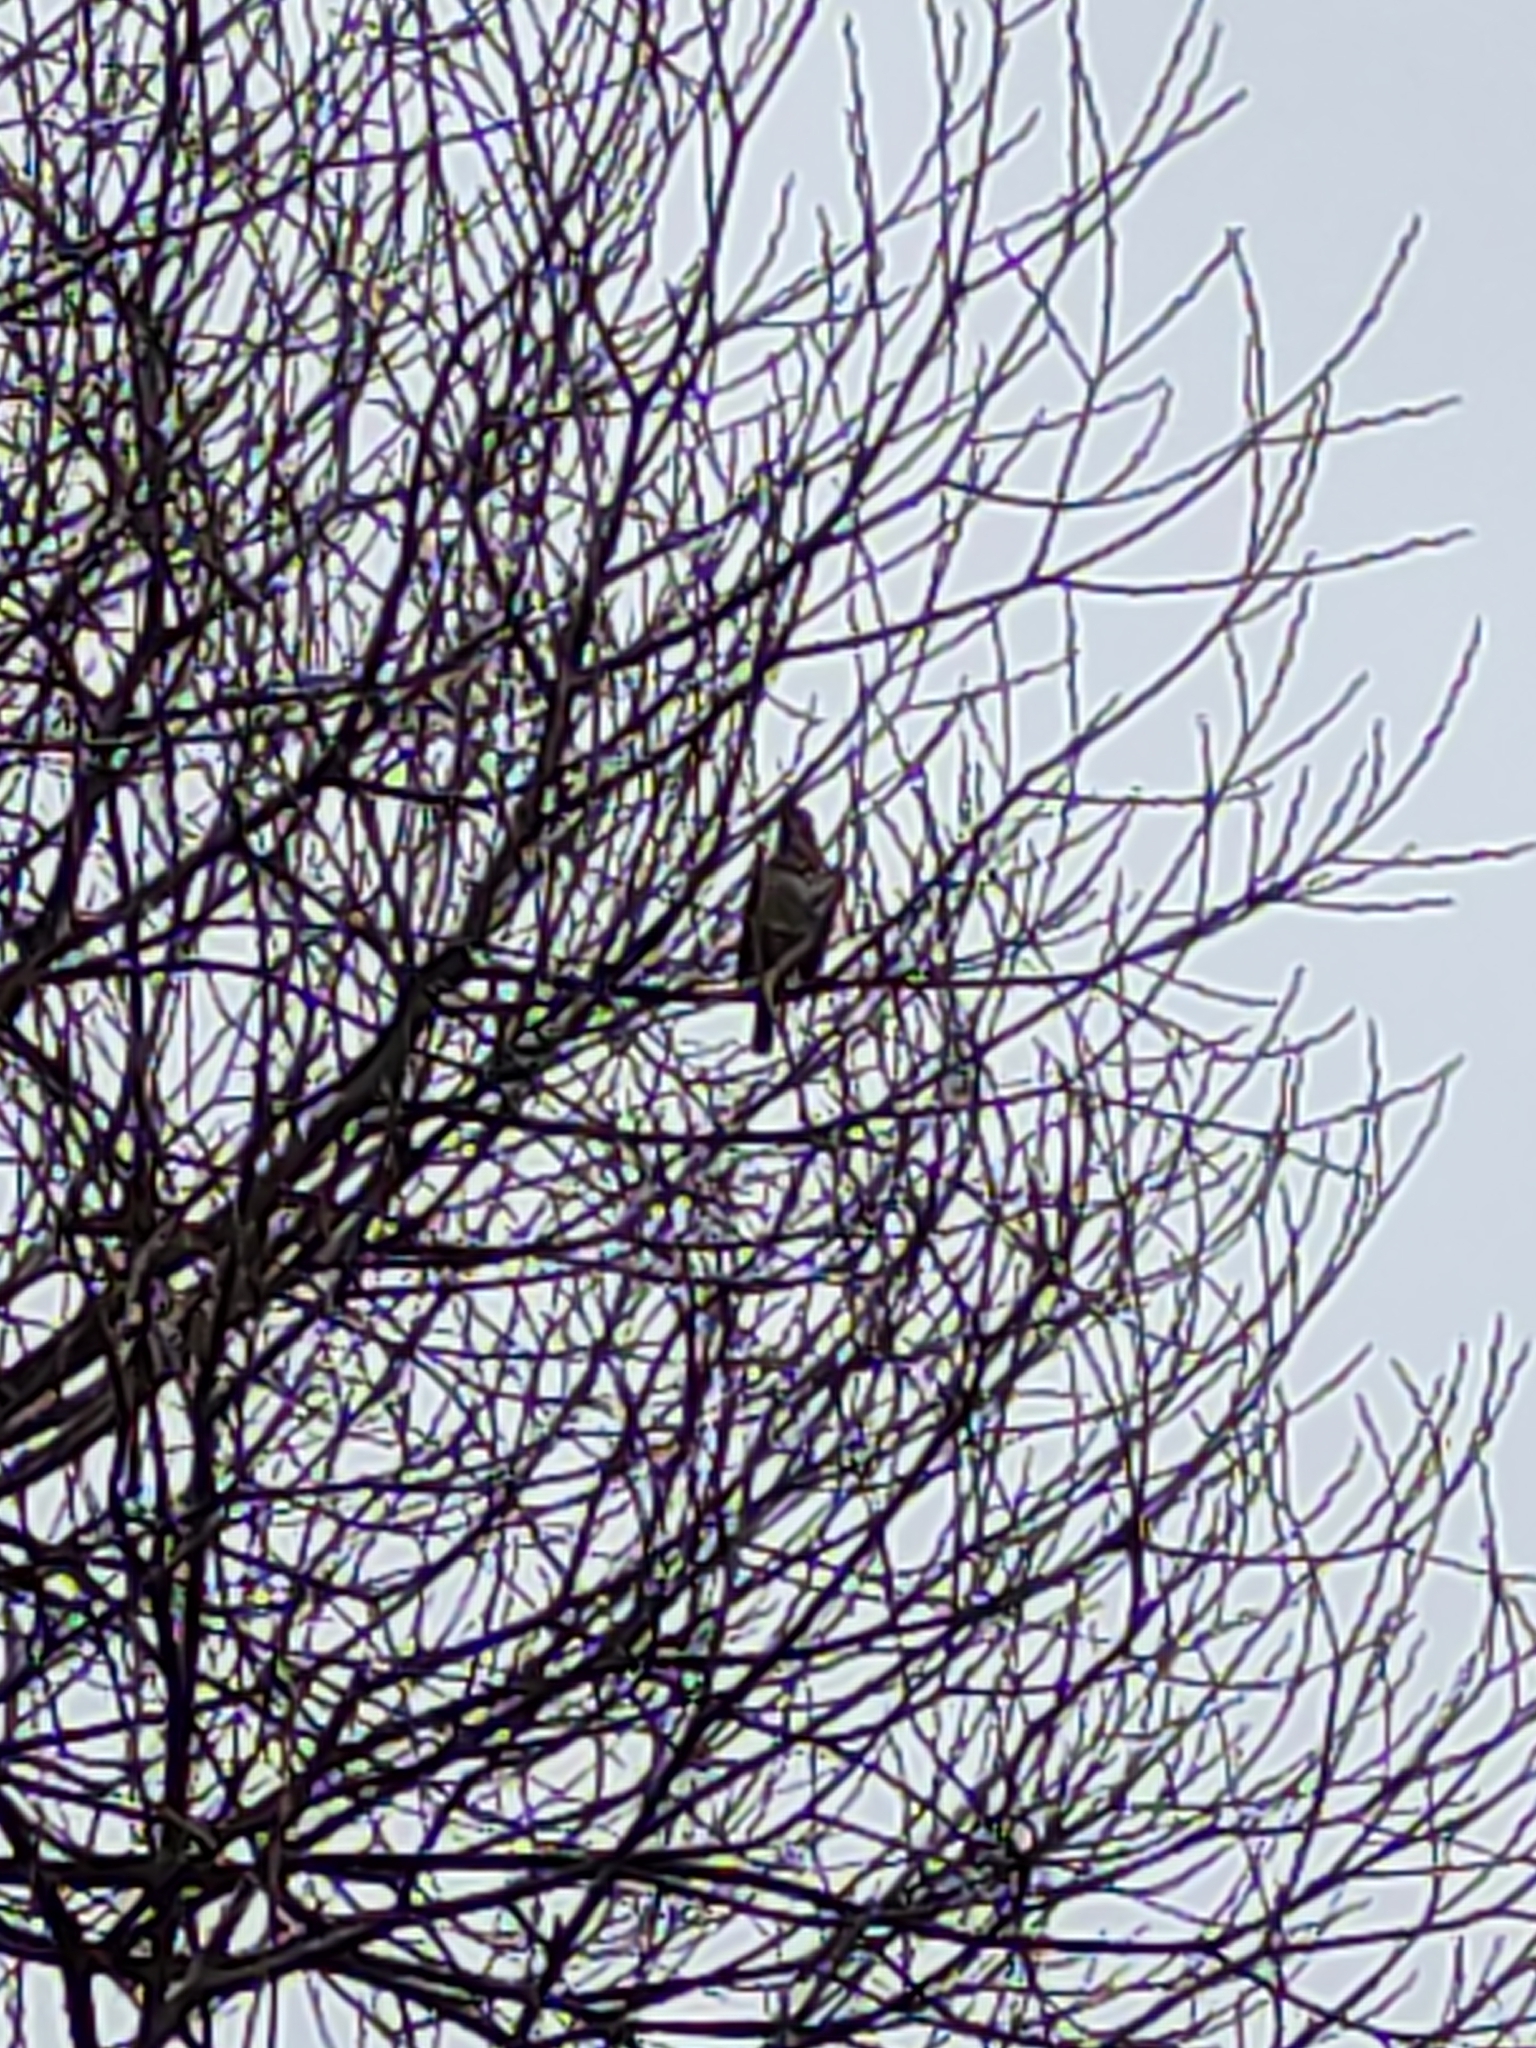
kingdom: Animalia
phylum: Chordata
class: Aves
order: Passeriformes
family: Turdidae
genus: Turdus
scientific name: Turdus philomelos
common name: Song thrush
